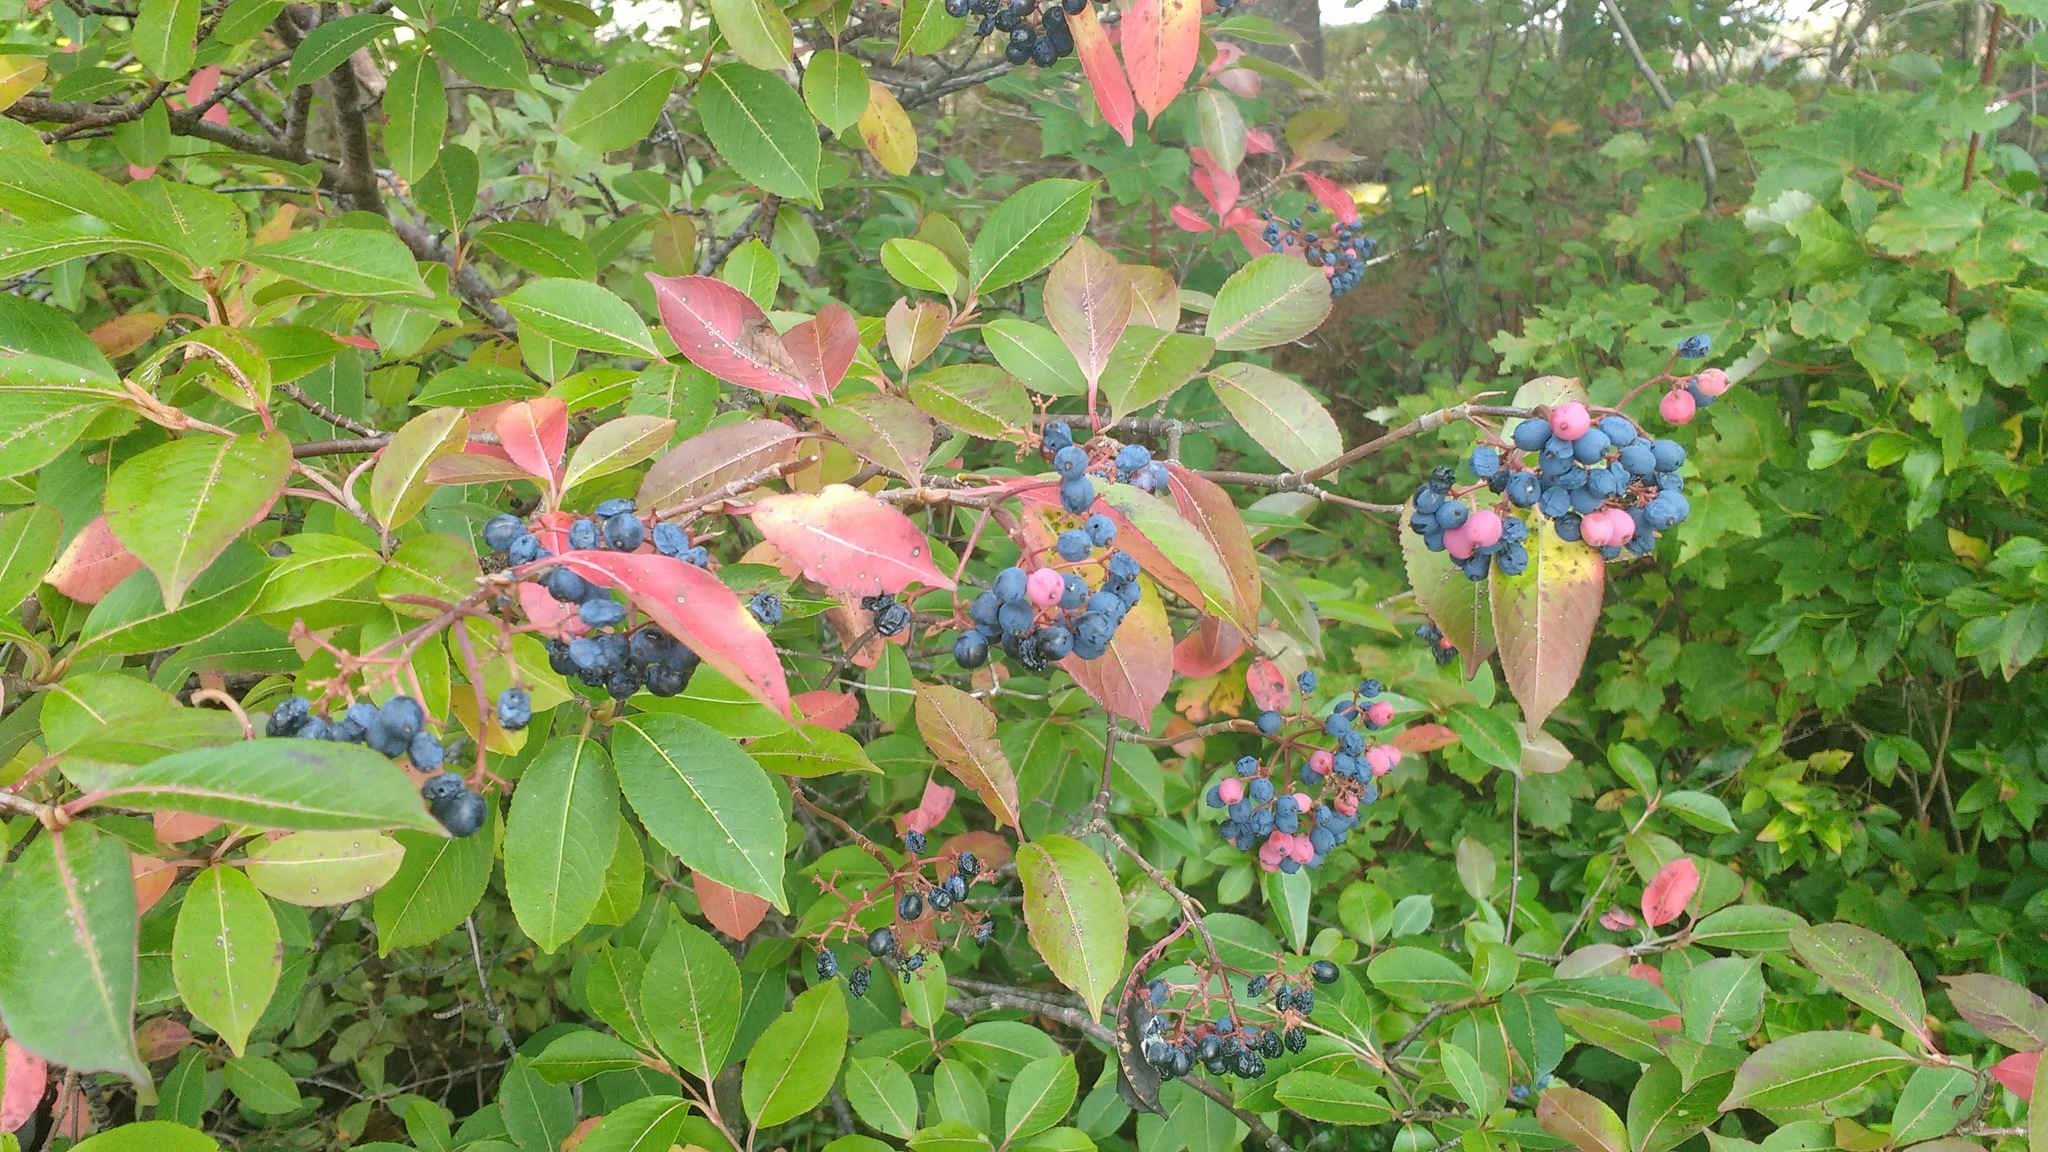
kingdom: Plantae
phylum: Tracheophyta
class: Magnoliopsida
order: Dipsacales
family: Viburnaceae
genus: Viburnum
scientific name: Viburnum cassinoides
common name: Swamp haw
